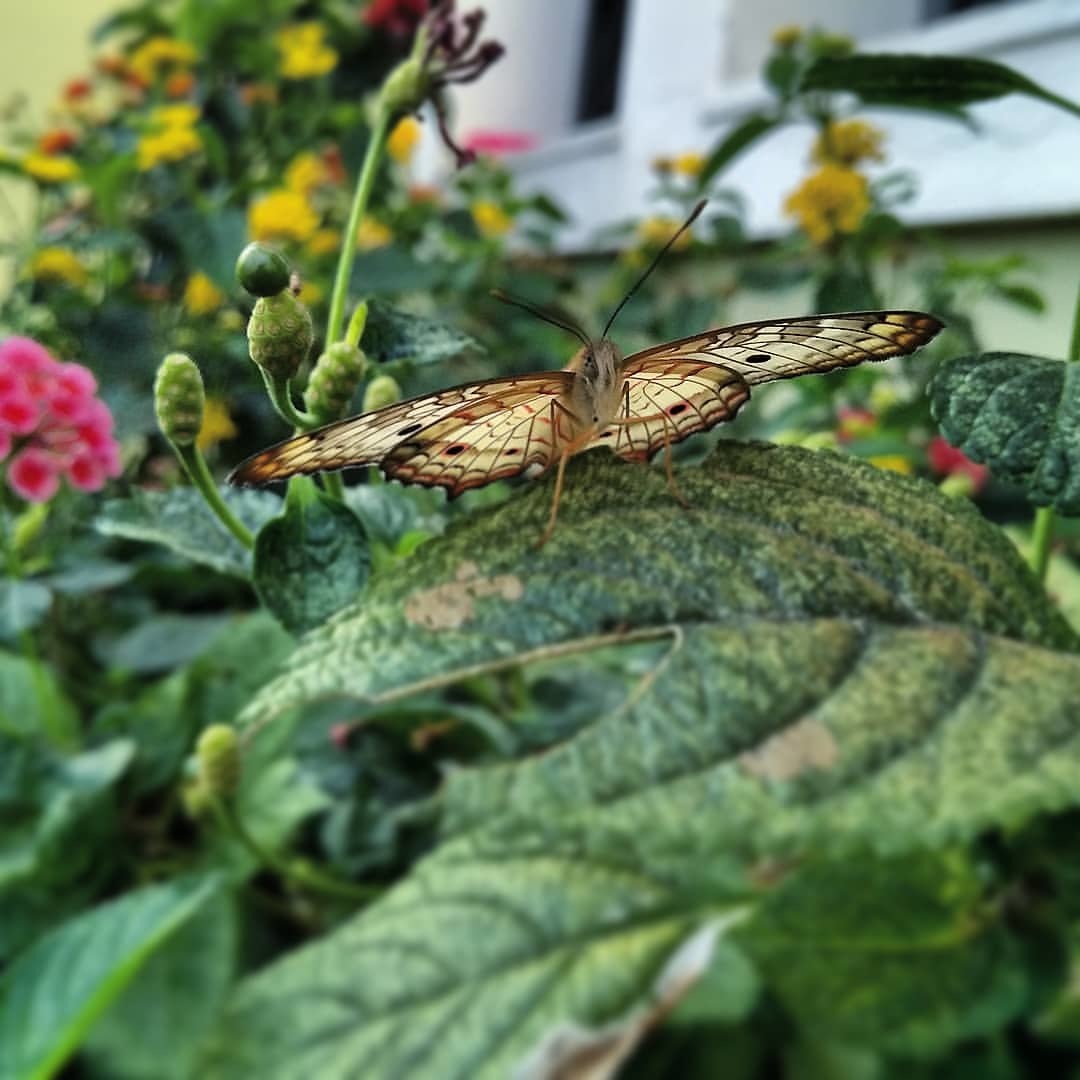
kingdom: Animalia
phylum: Arthropoda
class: Insecta
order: Lepidoptera
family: Nymphalidae
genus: Anartia
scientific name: Anartia jatrophae
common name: White peacock
